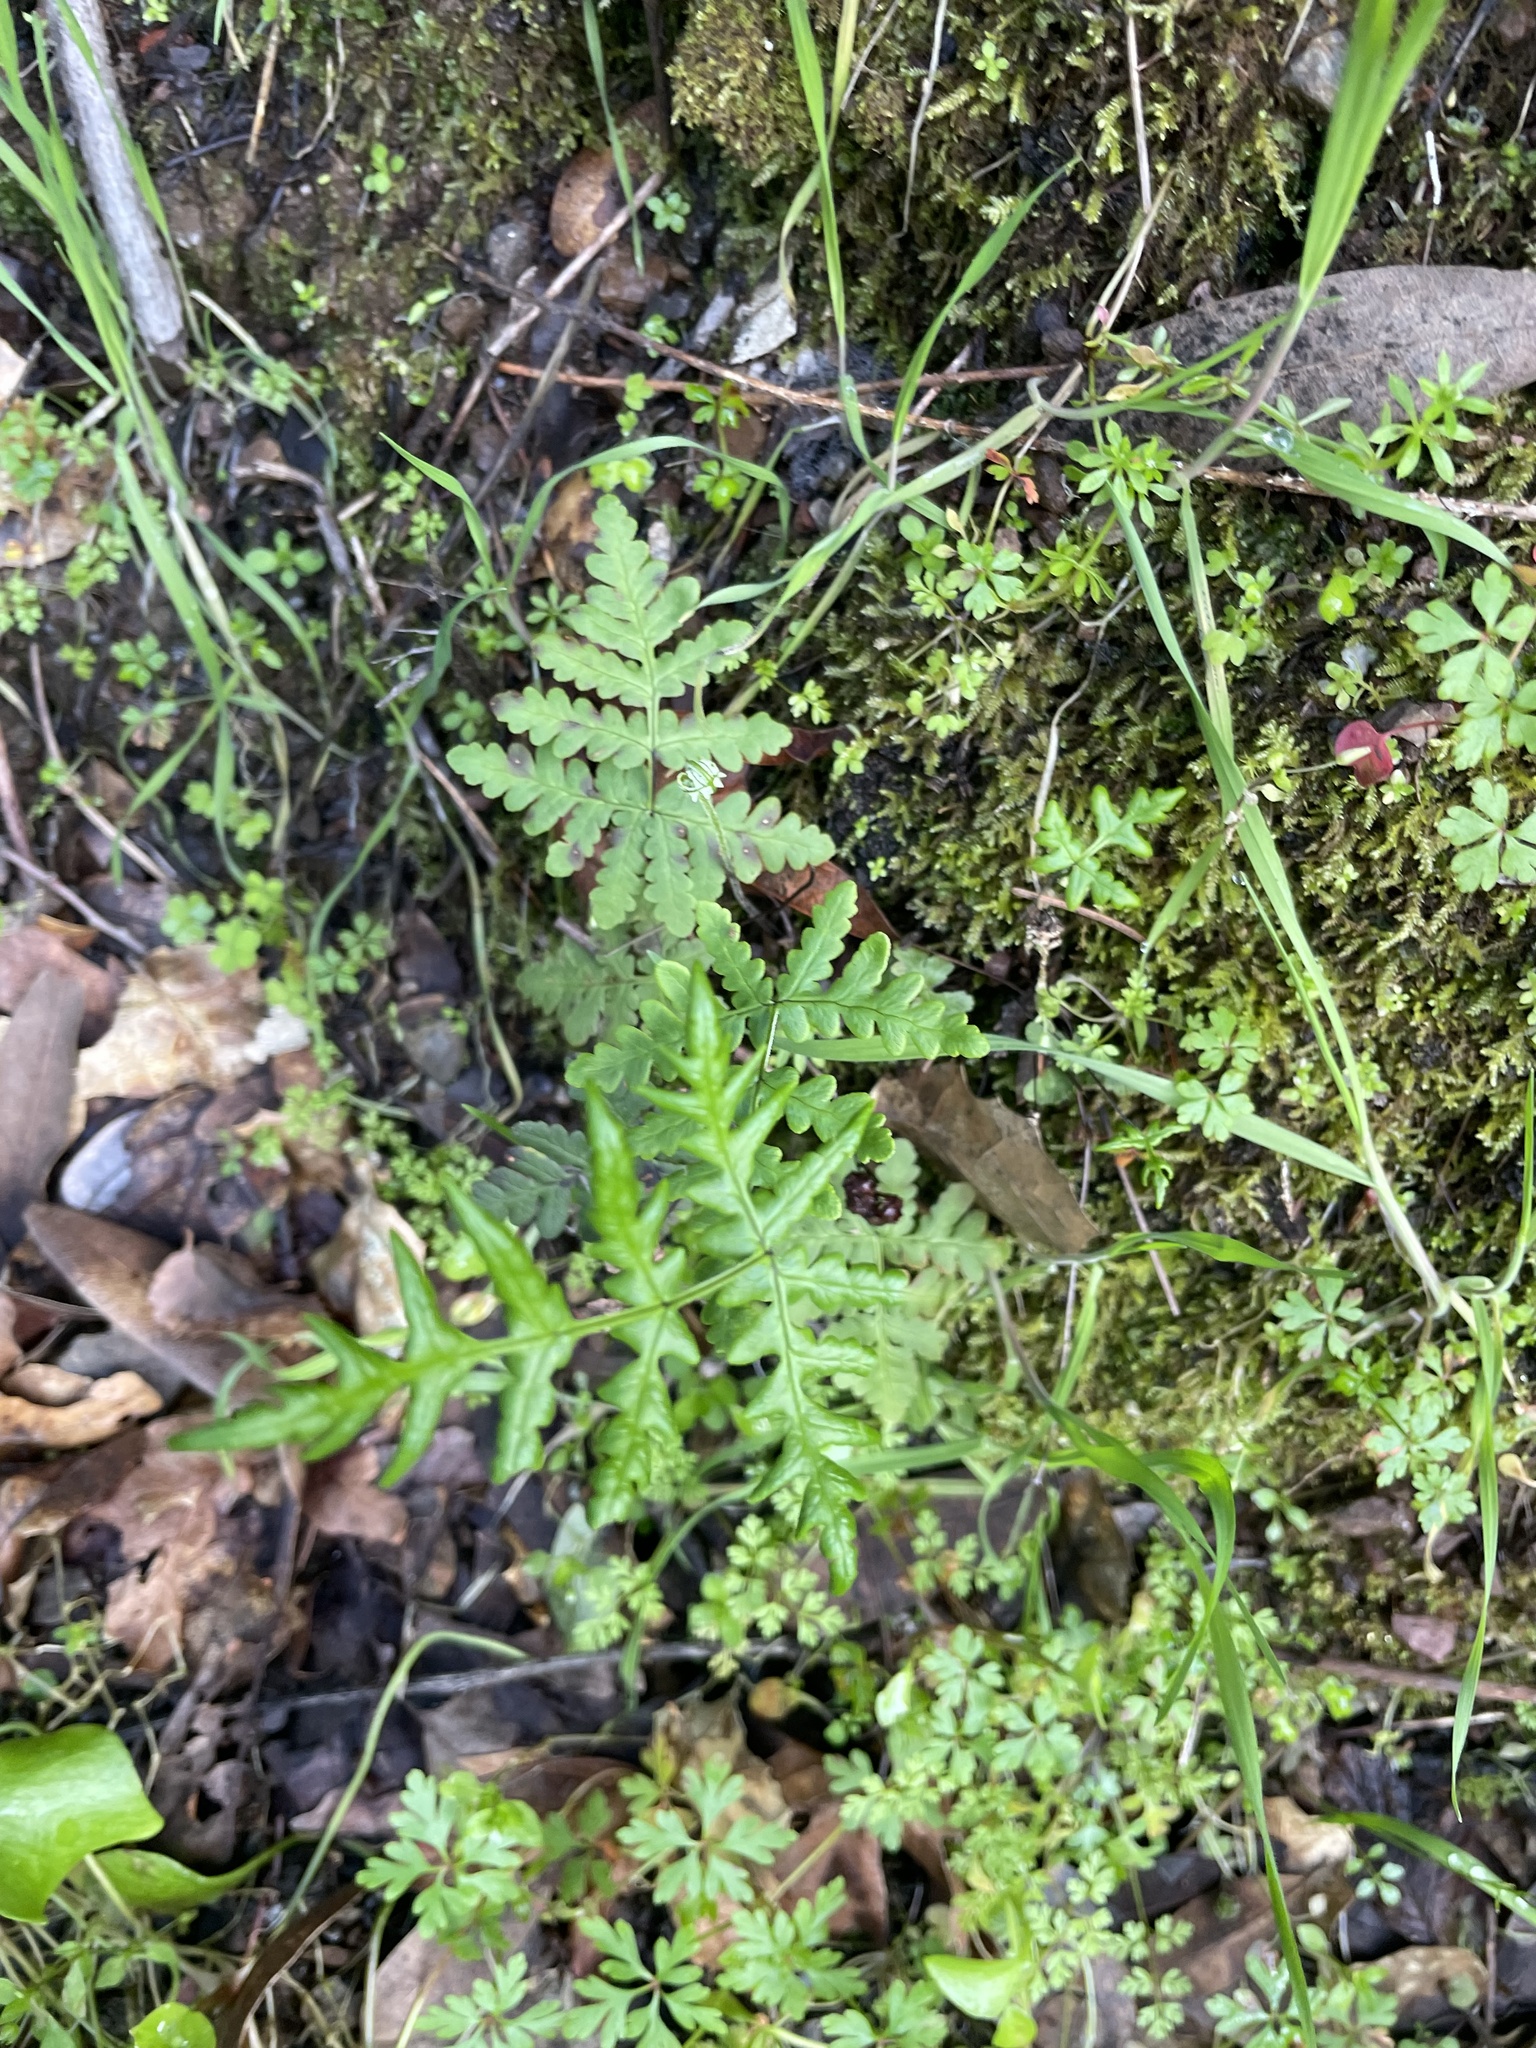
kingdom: Plantae
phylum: Tracheophyta
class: Polypodiopsida
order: Polypodiales
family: Pteridaceae
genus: Pentagramma
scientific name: Pentagramma triangularis
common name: Gold fern
